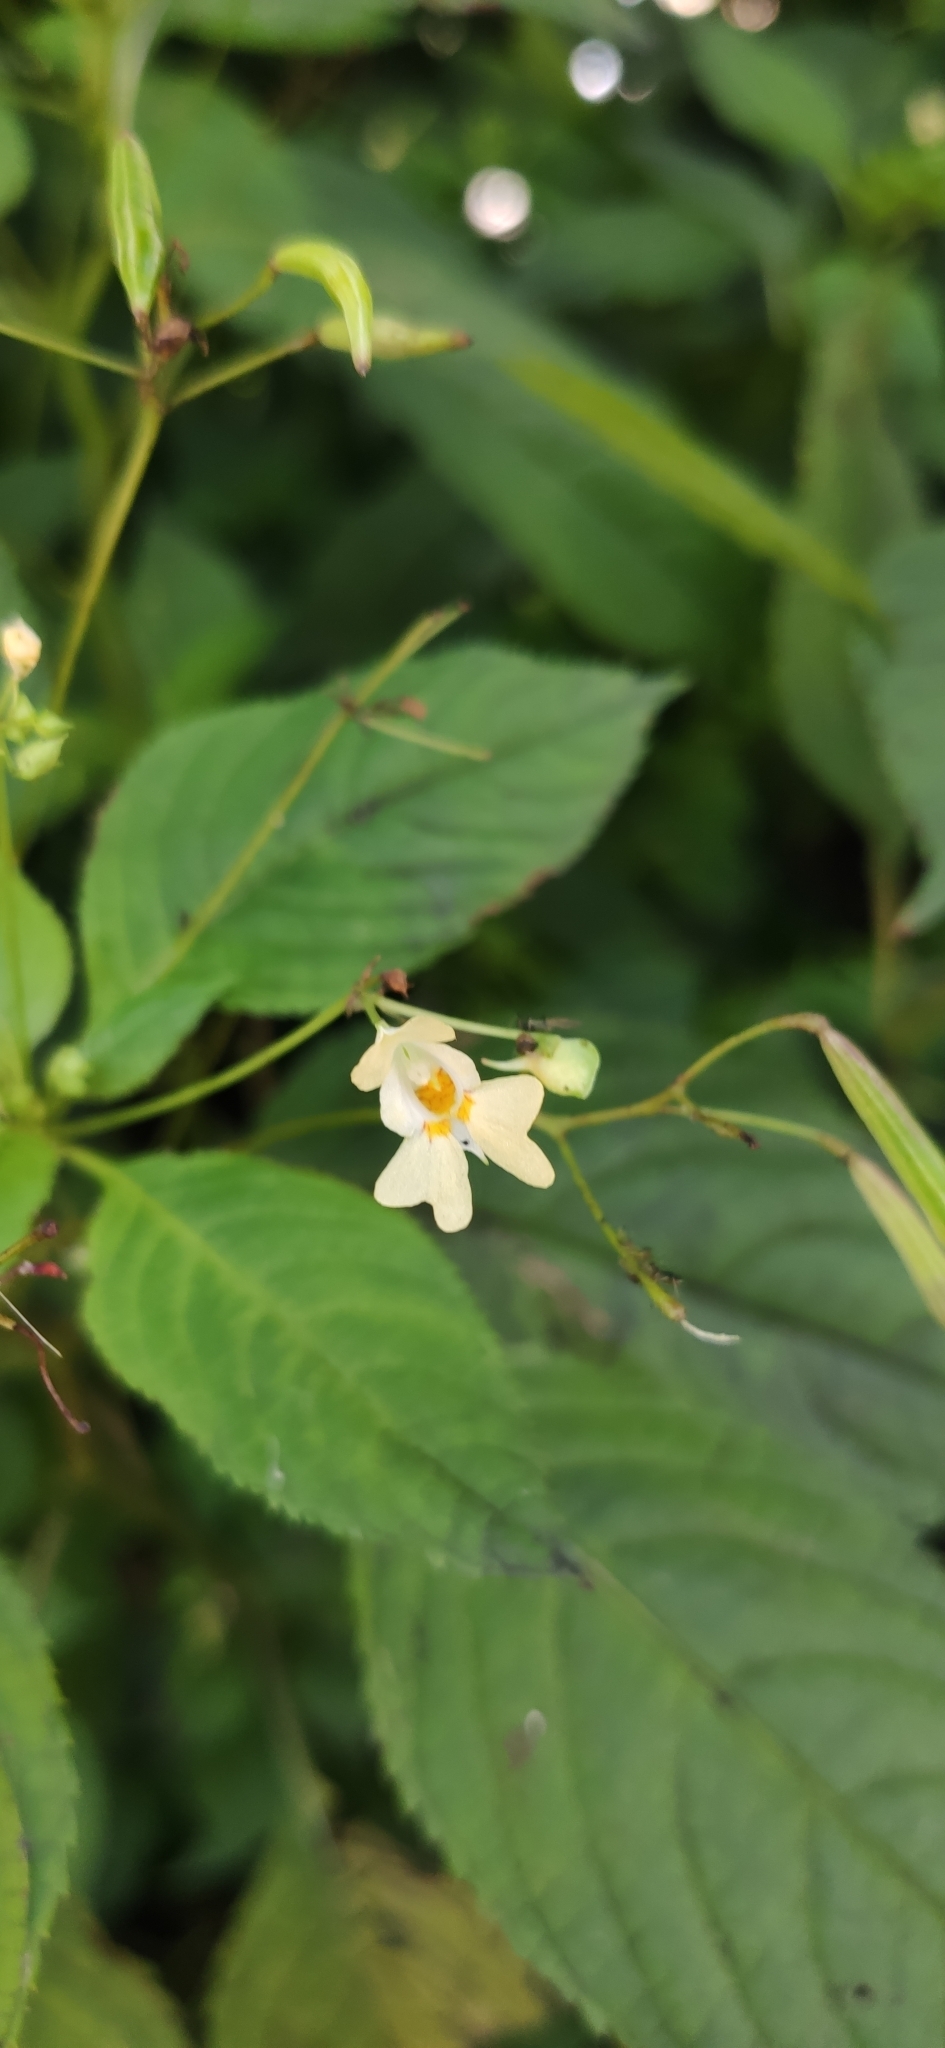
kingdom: Plantae
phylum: Tracheophyta
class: Magnoliopsida
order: Ericales
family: Balsaminaceae
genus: Impatiens
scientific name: Impatiens parviflora
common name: Small balsam
